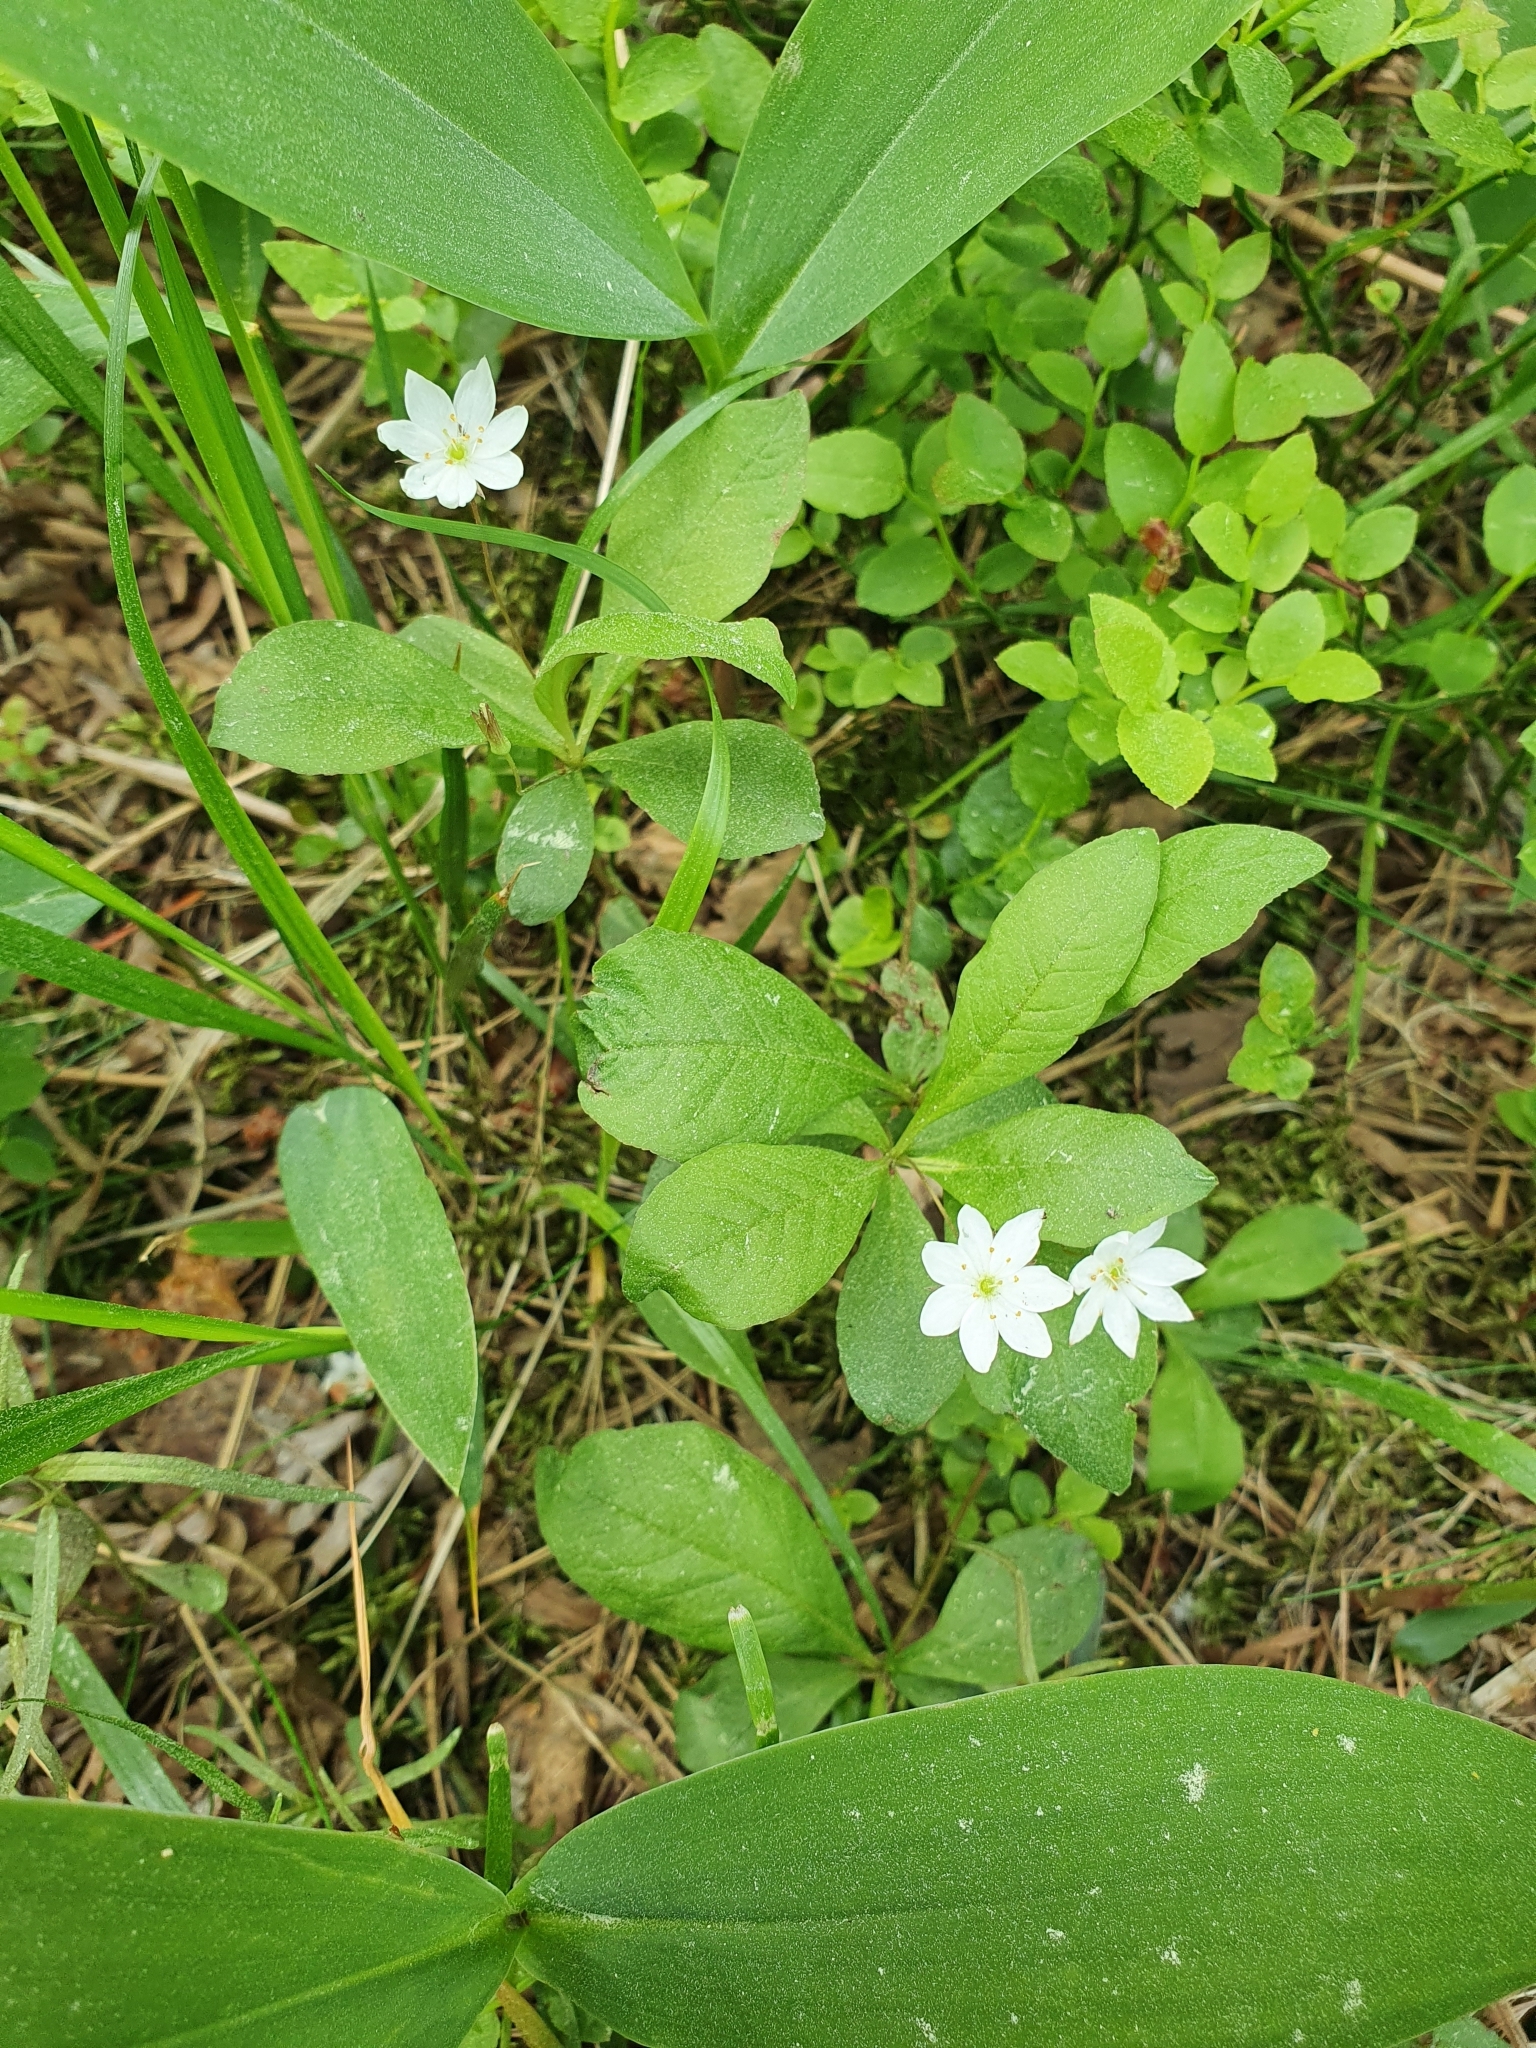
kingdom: Plantae
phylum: Tracheophyta
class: Magnoliopsida
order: Ericales
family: Primulaceae
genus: Lysimachia
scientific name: Lysimachia europaea
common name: Arctic starflower
